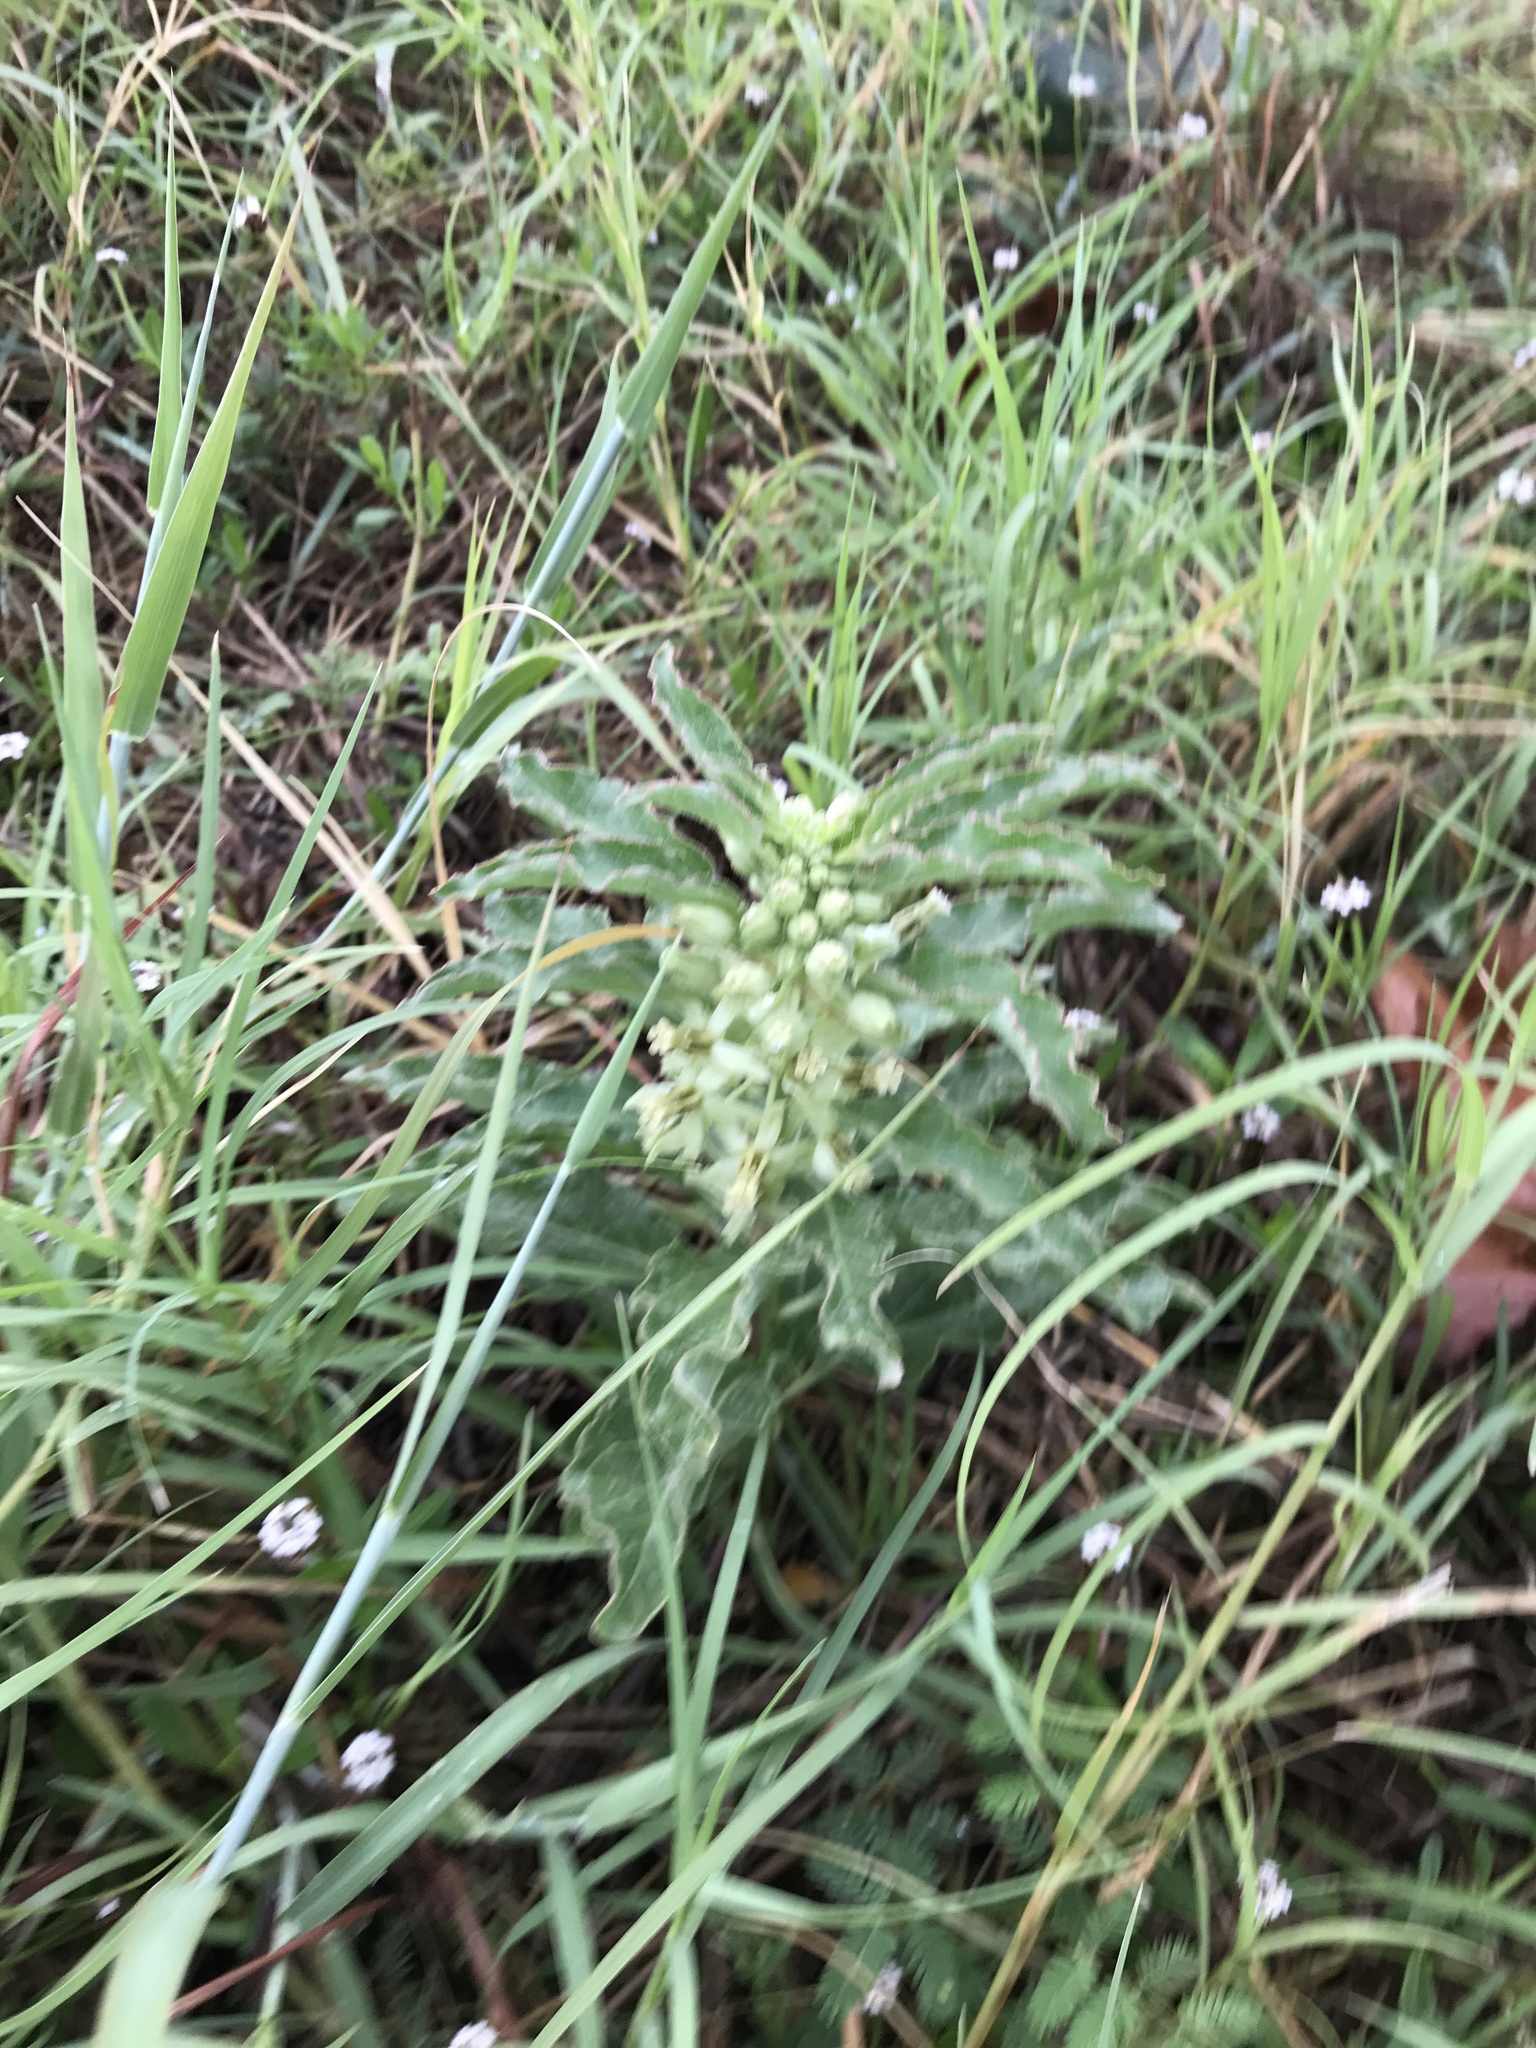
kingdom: Plantae
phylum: Tracheophyta
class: Magnoliopsida
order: Gentianales
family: Apocynaceae
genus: Asclepias
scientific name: Asclepias oenotheroides
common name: Zizotes milkweed
